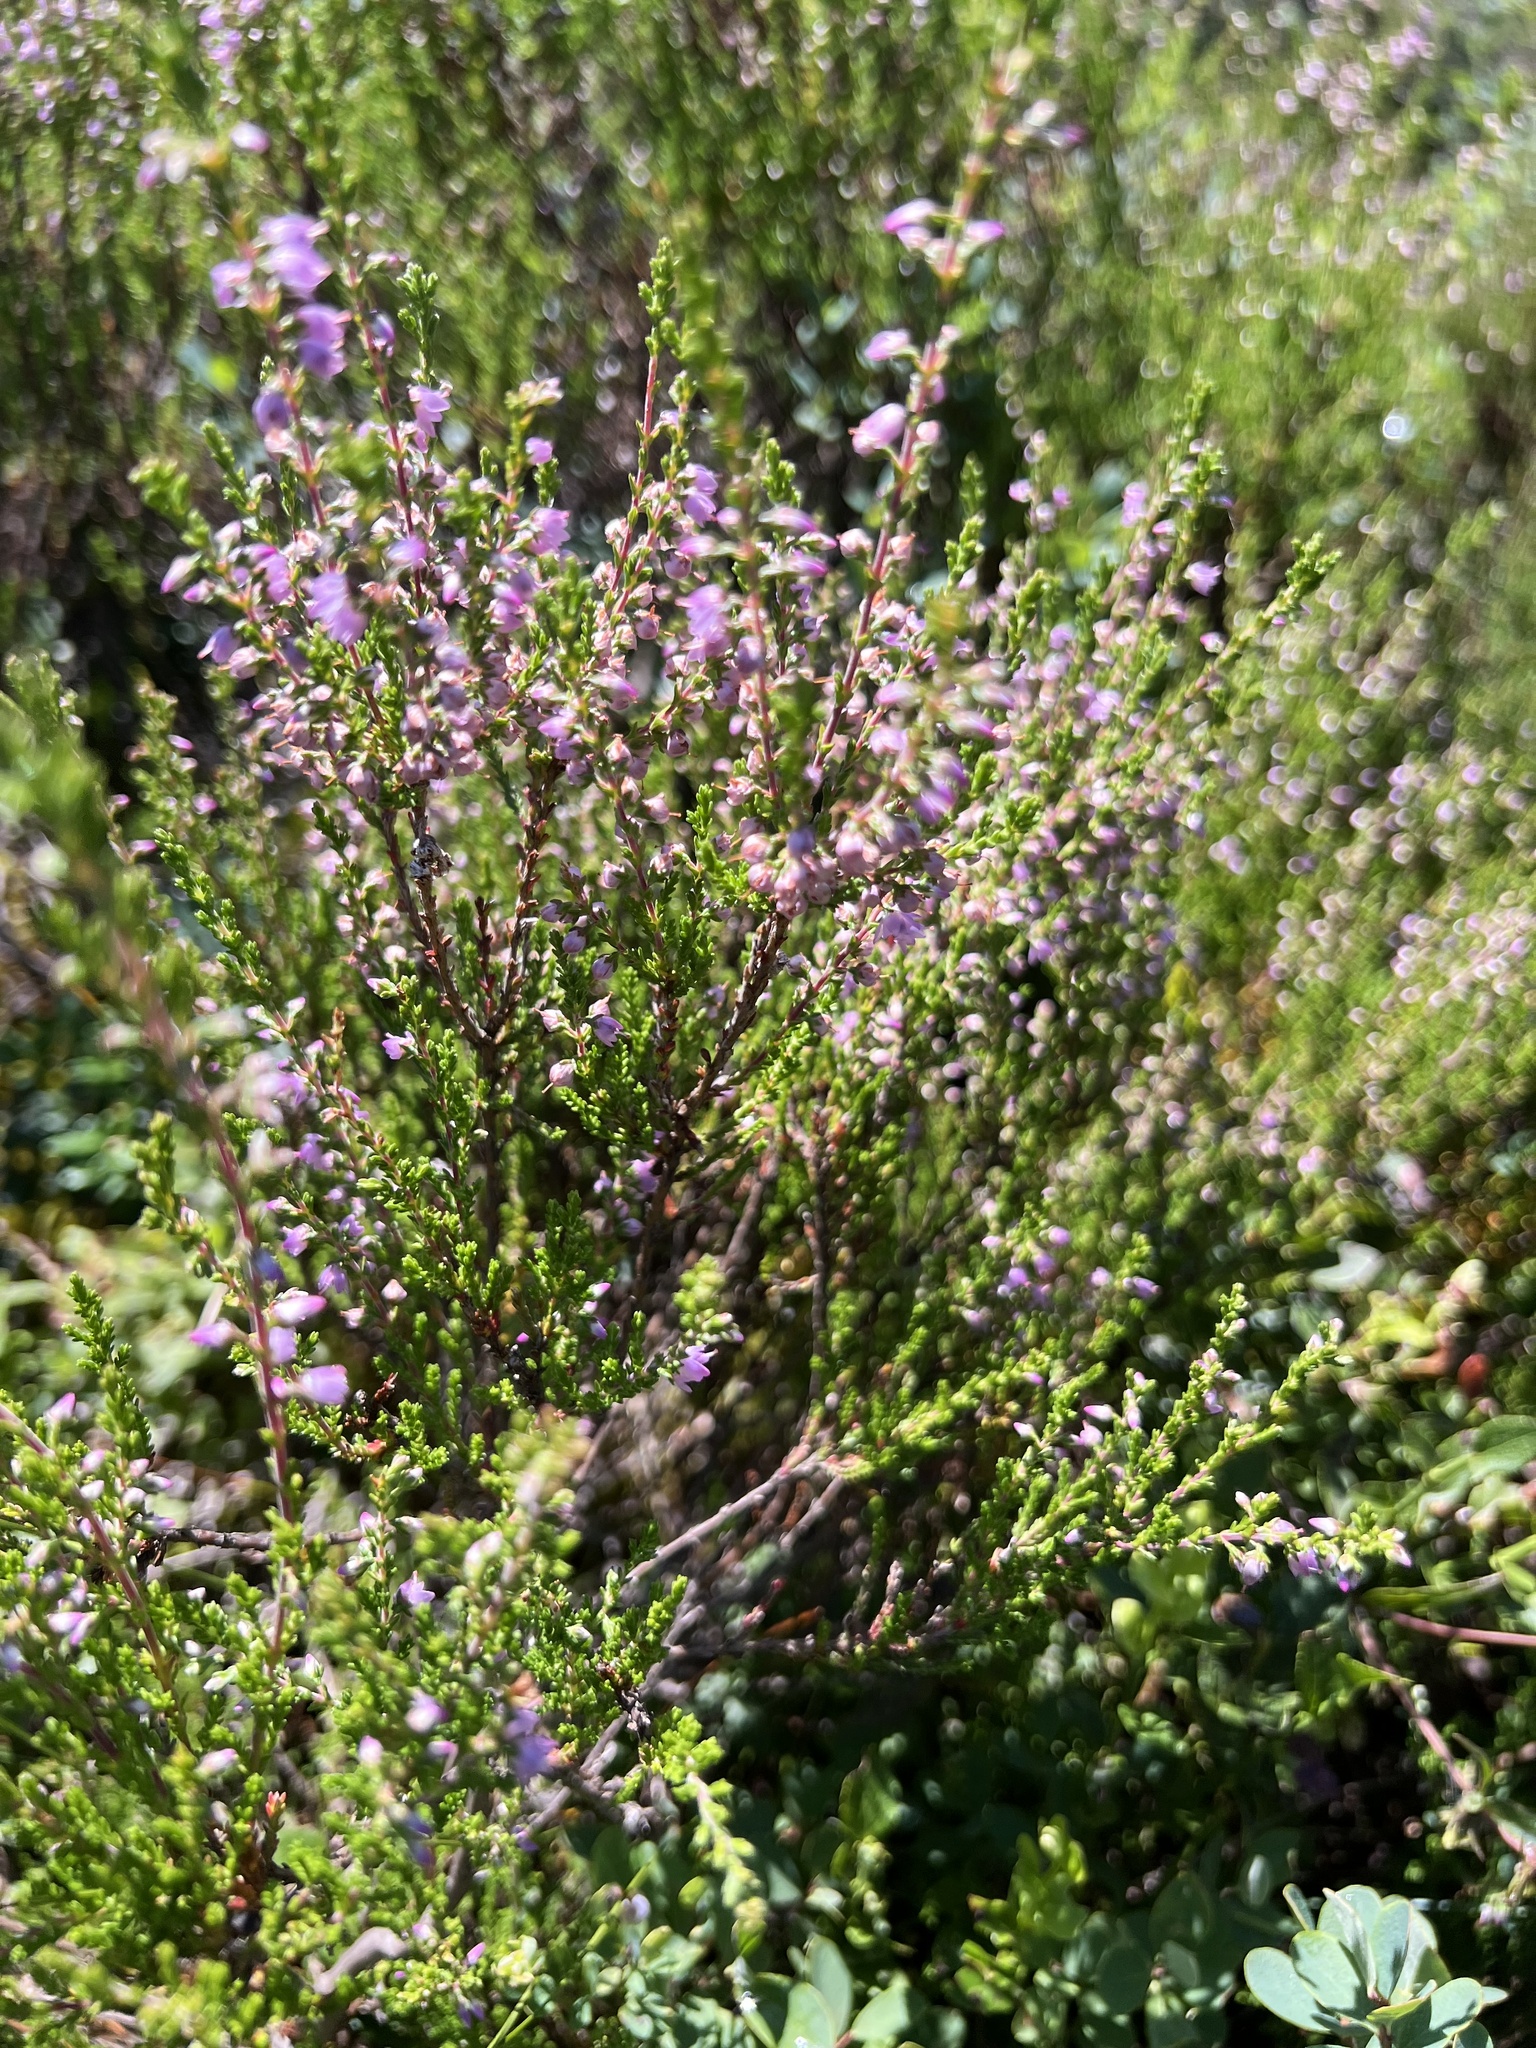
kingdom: Plantae
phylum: Tracheophyta
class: Magnoliopsida
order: Ericales
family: Ericaceae
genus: Calluna
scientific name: Calluna vulgaris
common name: Heather
